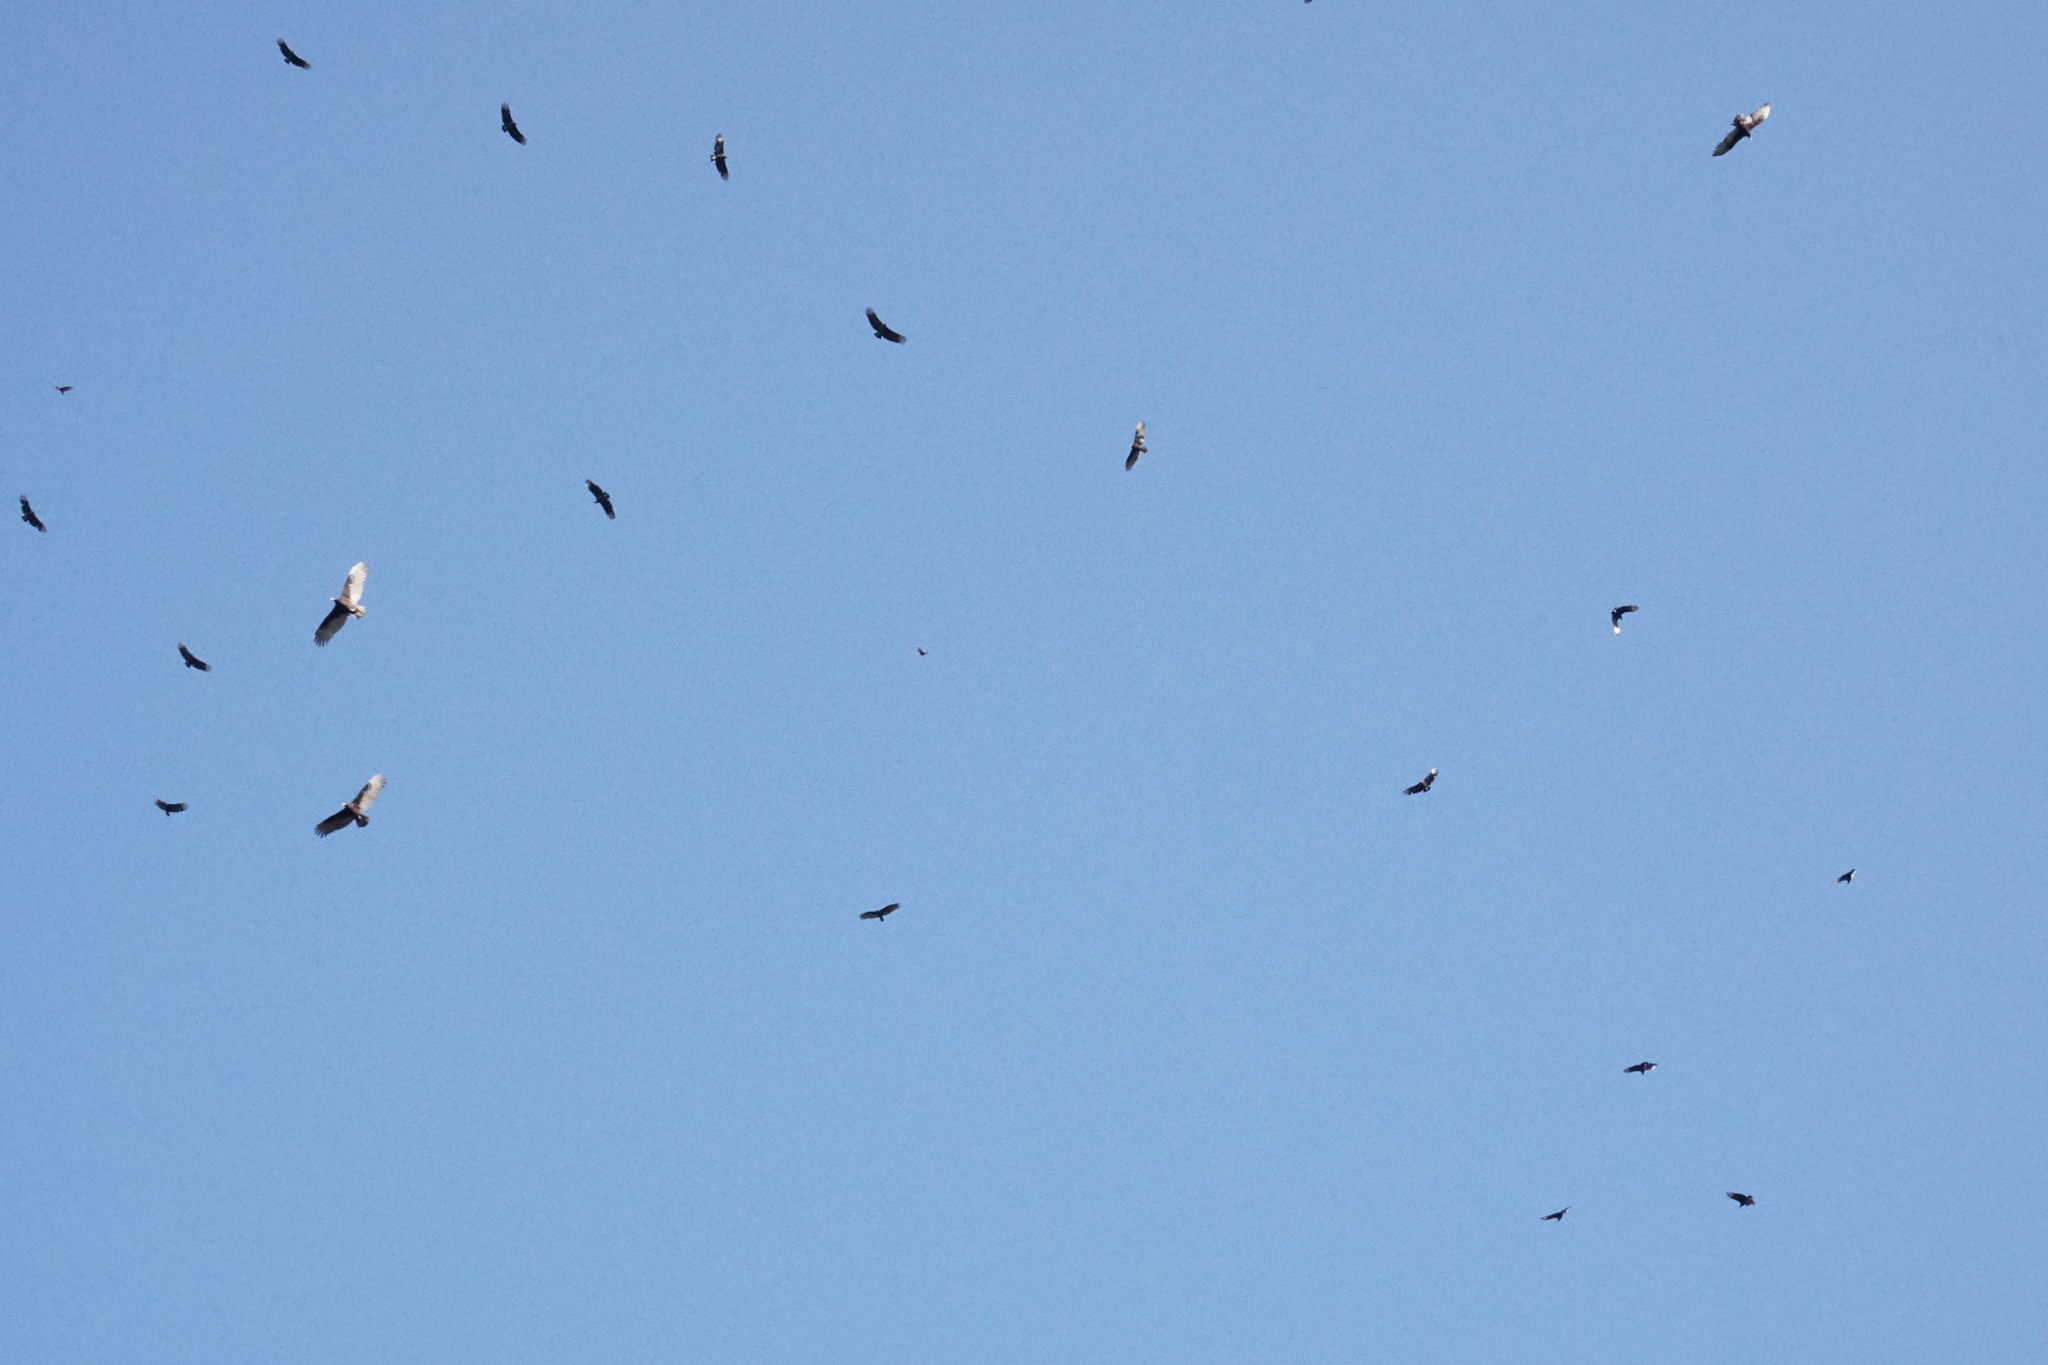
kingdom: Animalia
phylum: Chordata
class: Aves
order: Accipitriformes
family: Cathartidae
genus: Cathartes
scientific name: Cathartes aura
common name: Turkey vulture
